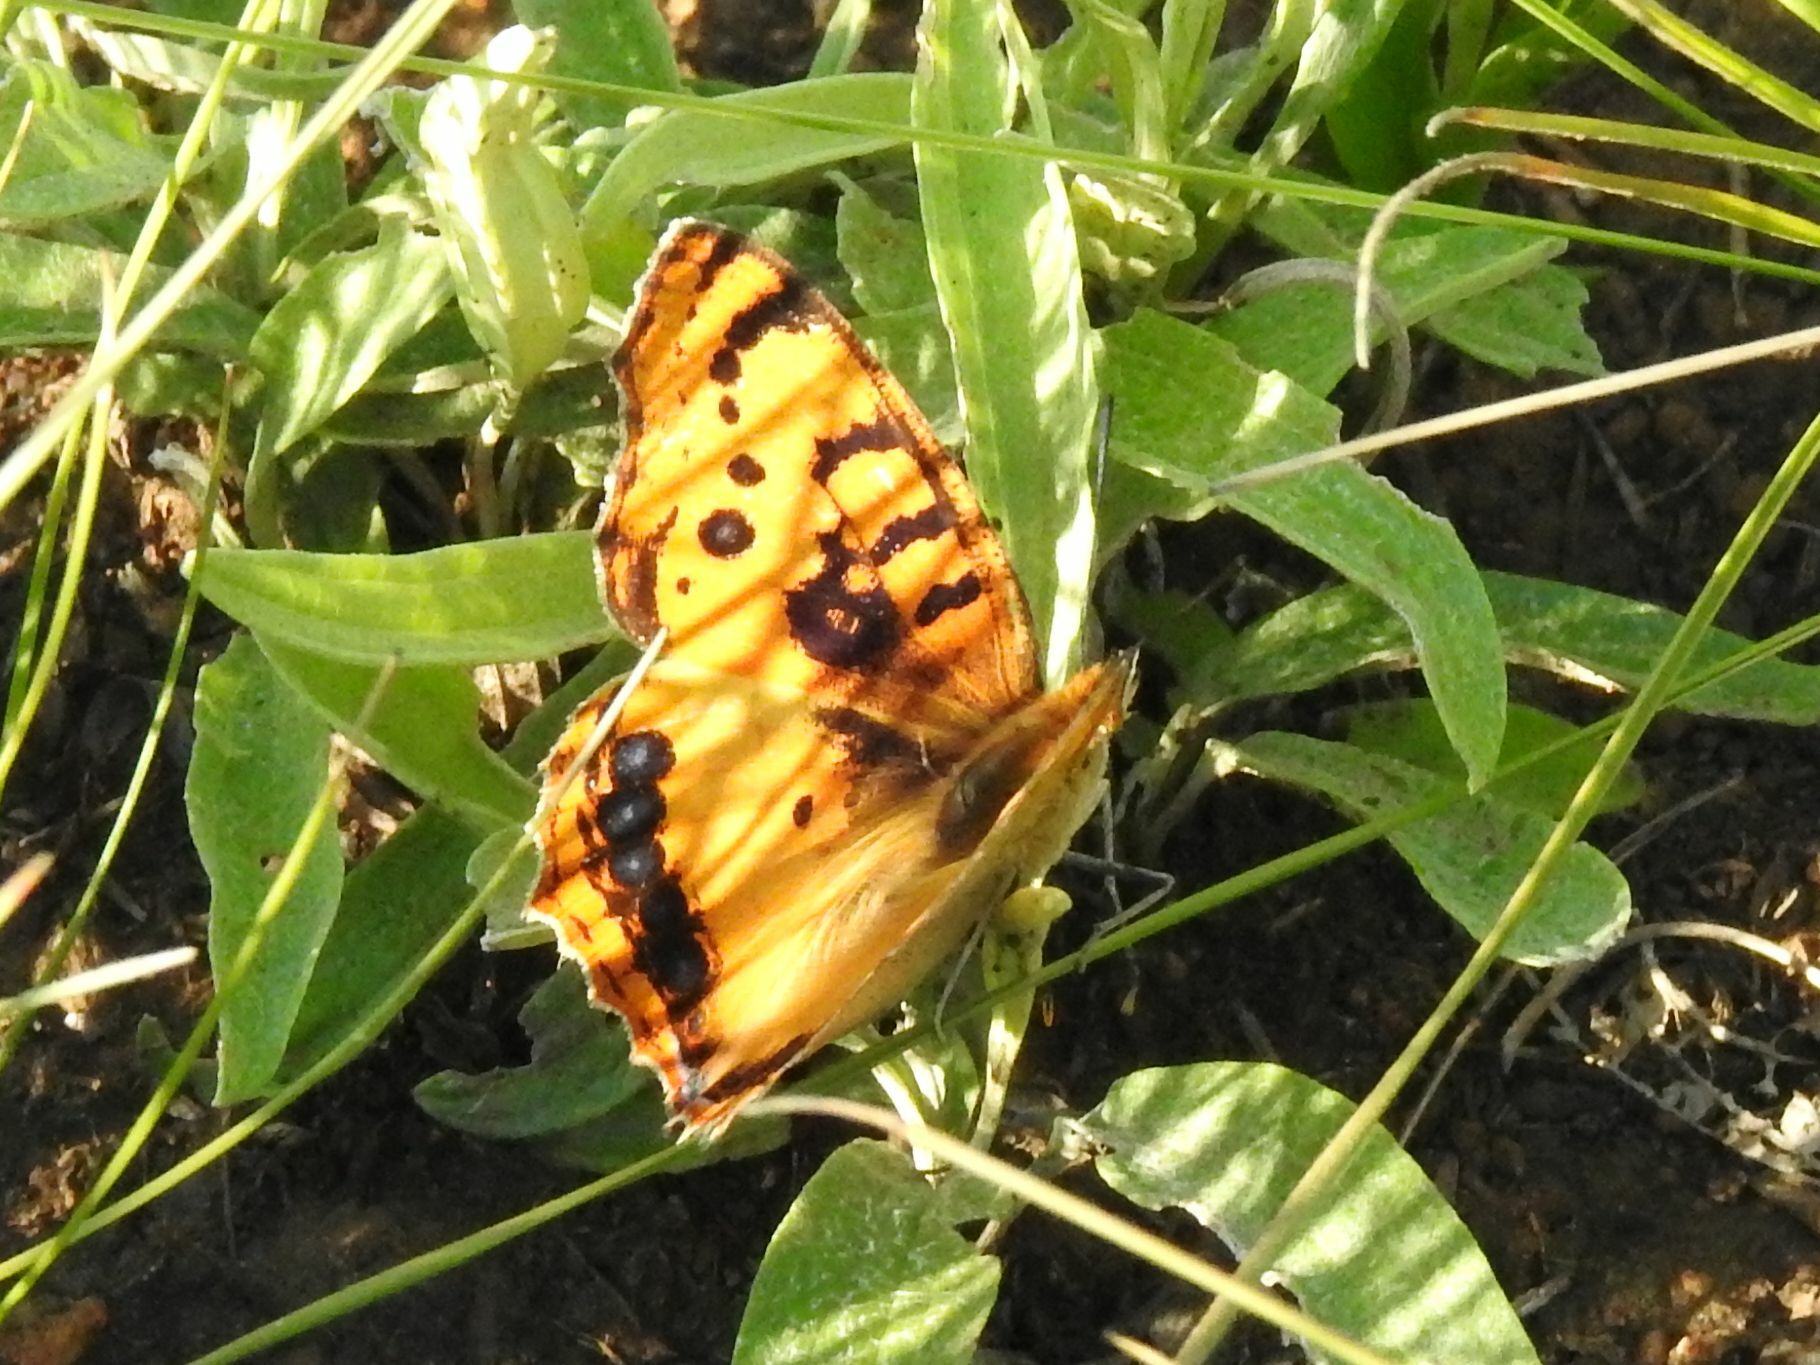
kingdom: Animalia
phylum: Arthropoda
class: Insecta
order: Lepidoptera
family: Nymphalidae
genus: Catacroptera
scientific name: Catacroptera cloanthe
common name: Pirate
